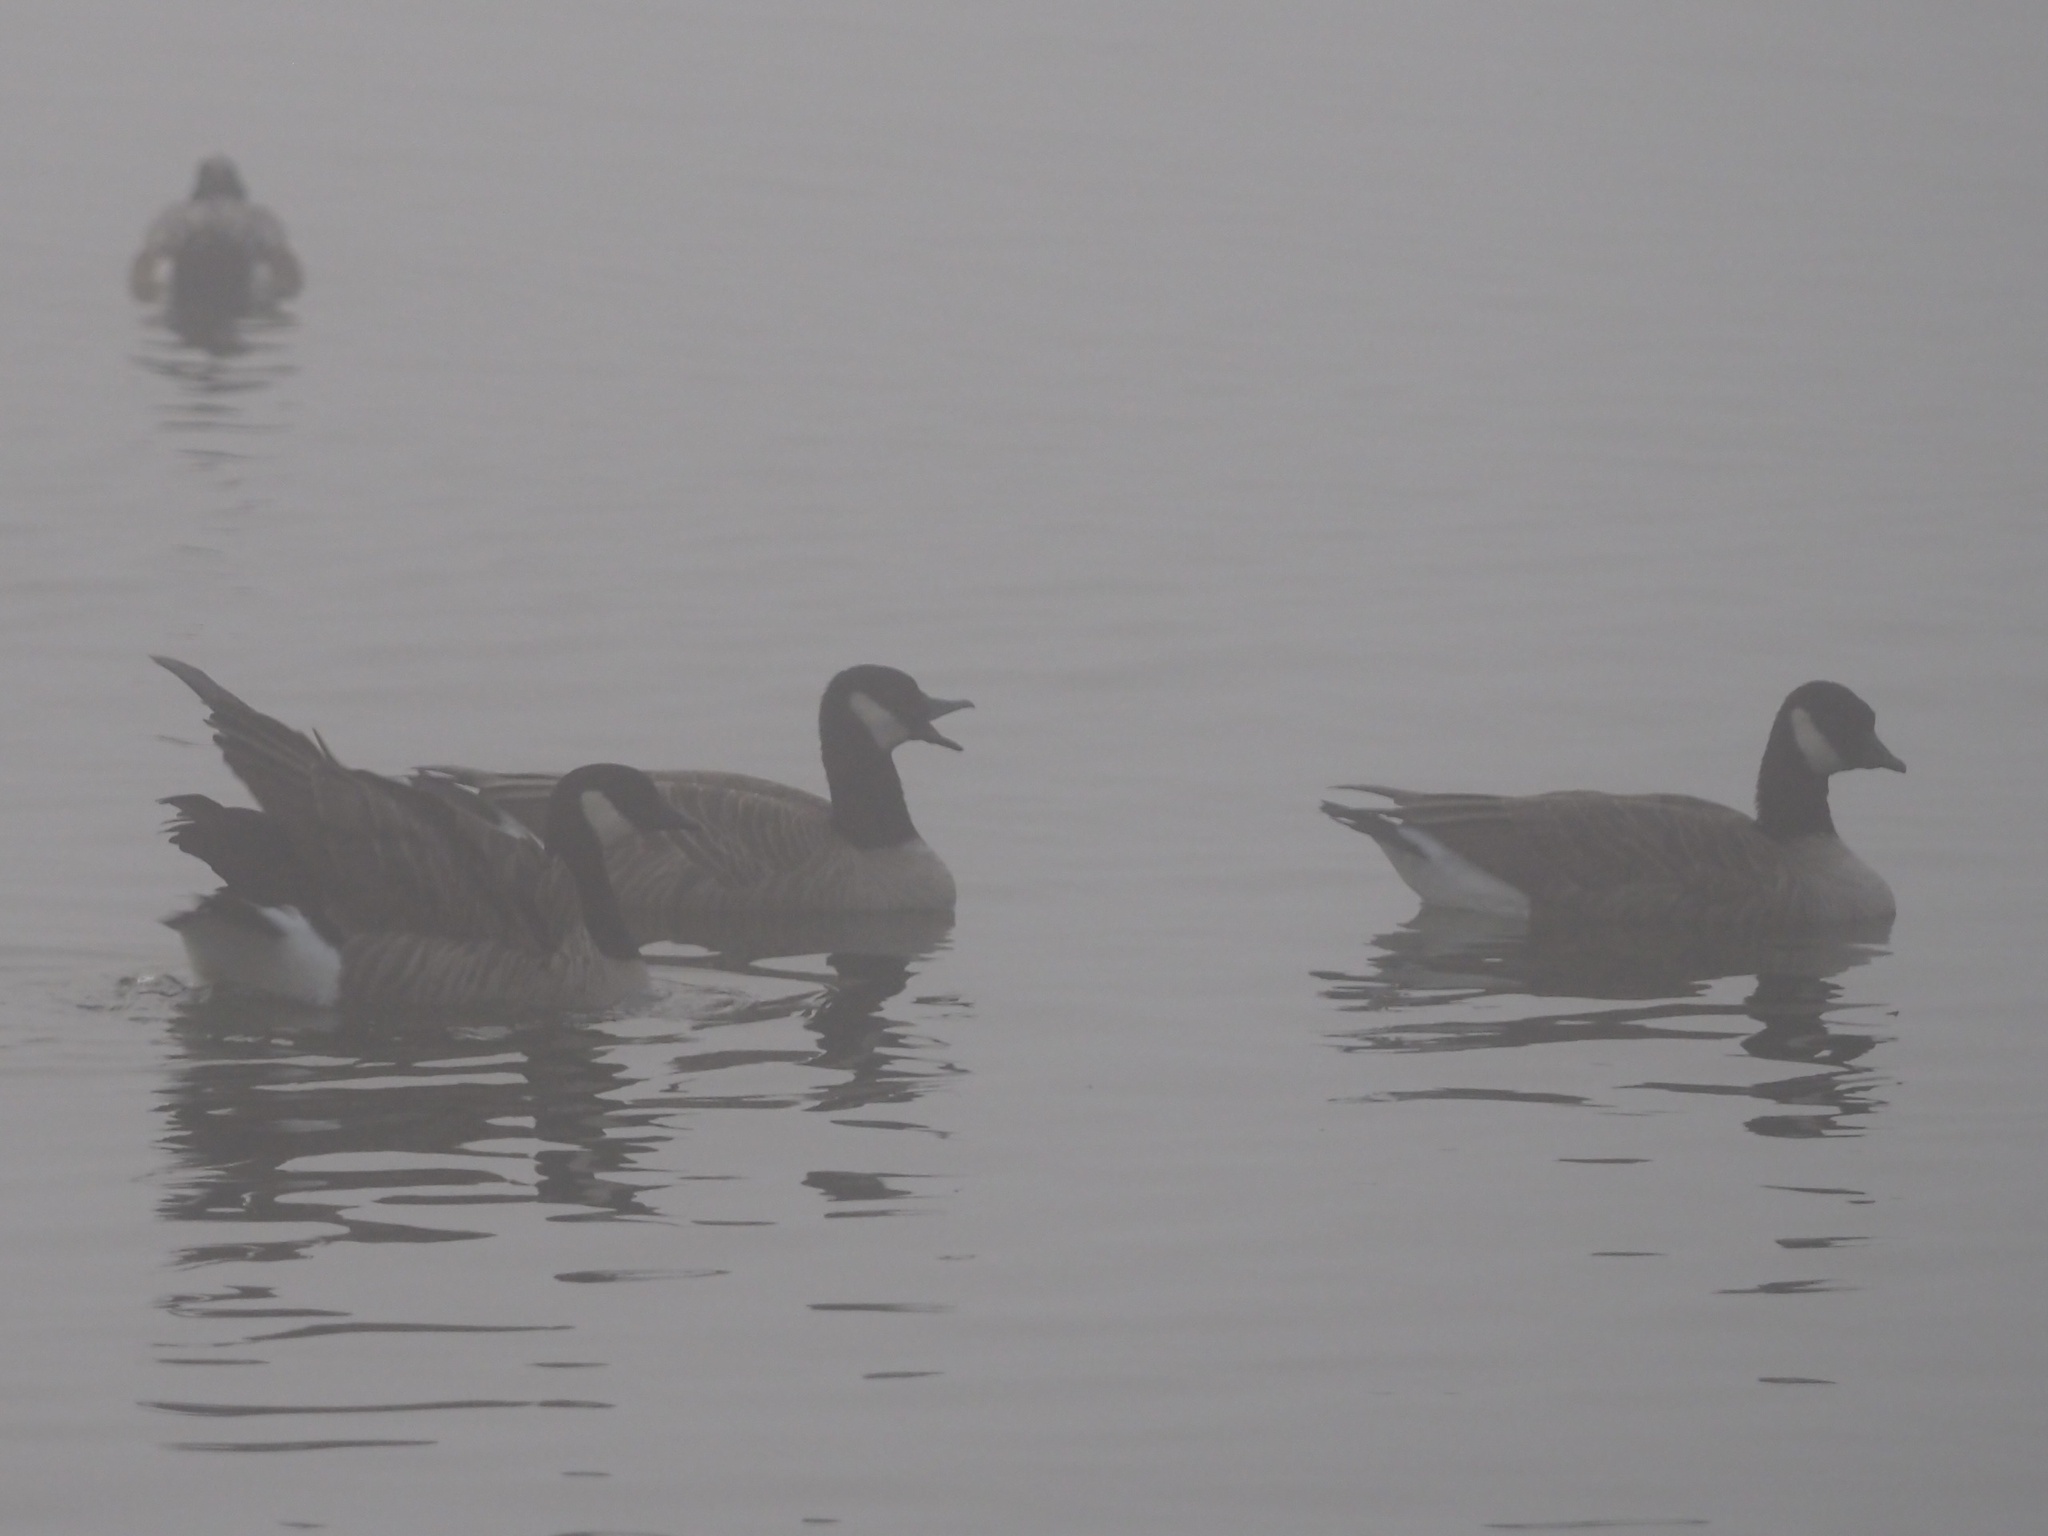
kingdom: Animalia
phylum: Chordata
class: Aves
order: Anseriformes
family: Anatidae
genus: Branta
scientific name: Branta hutchinsii
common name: Cackling goose
